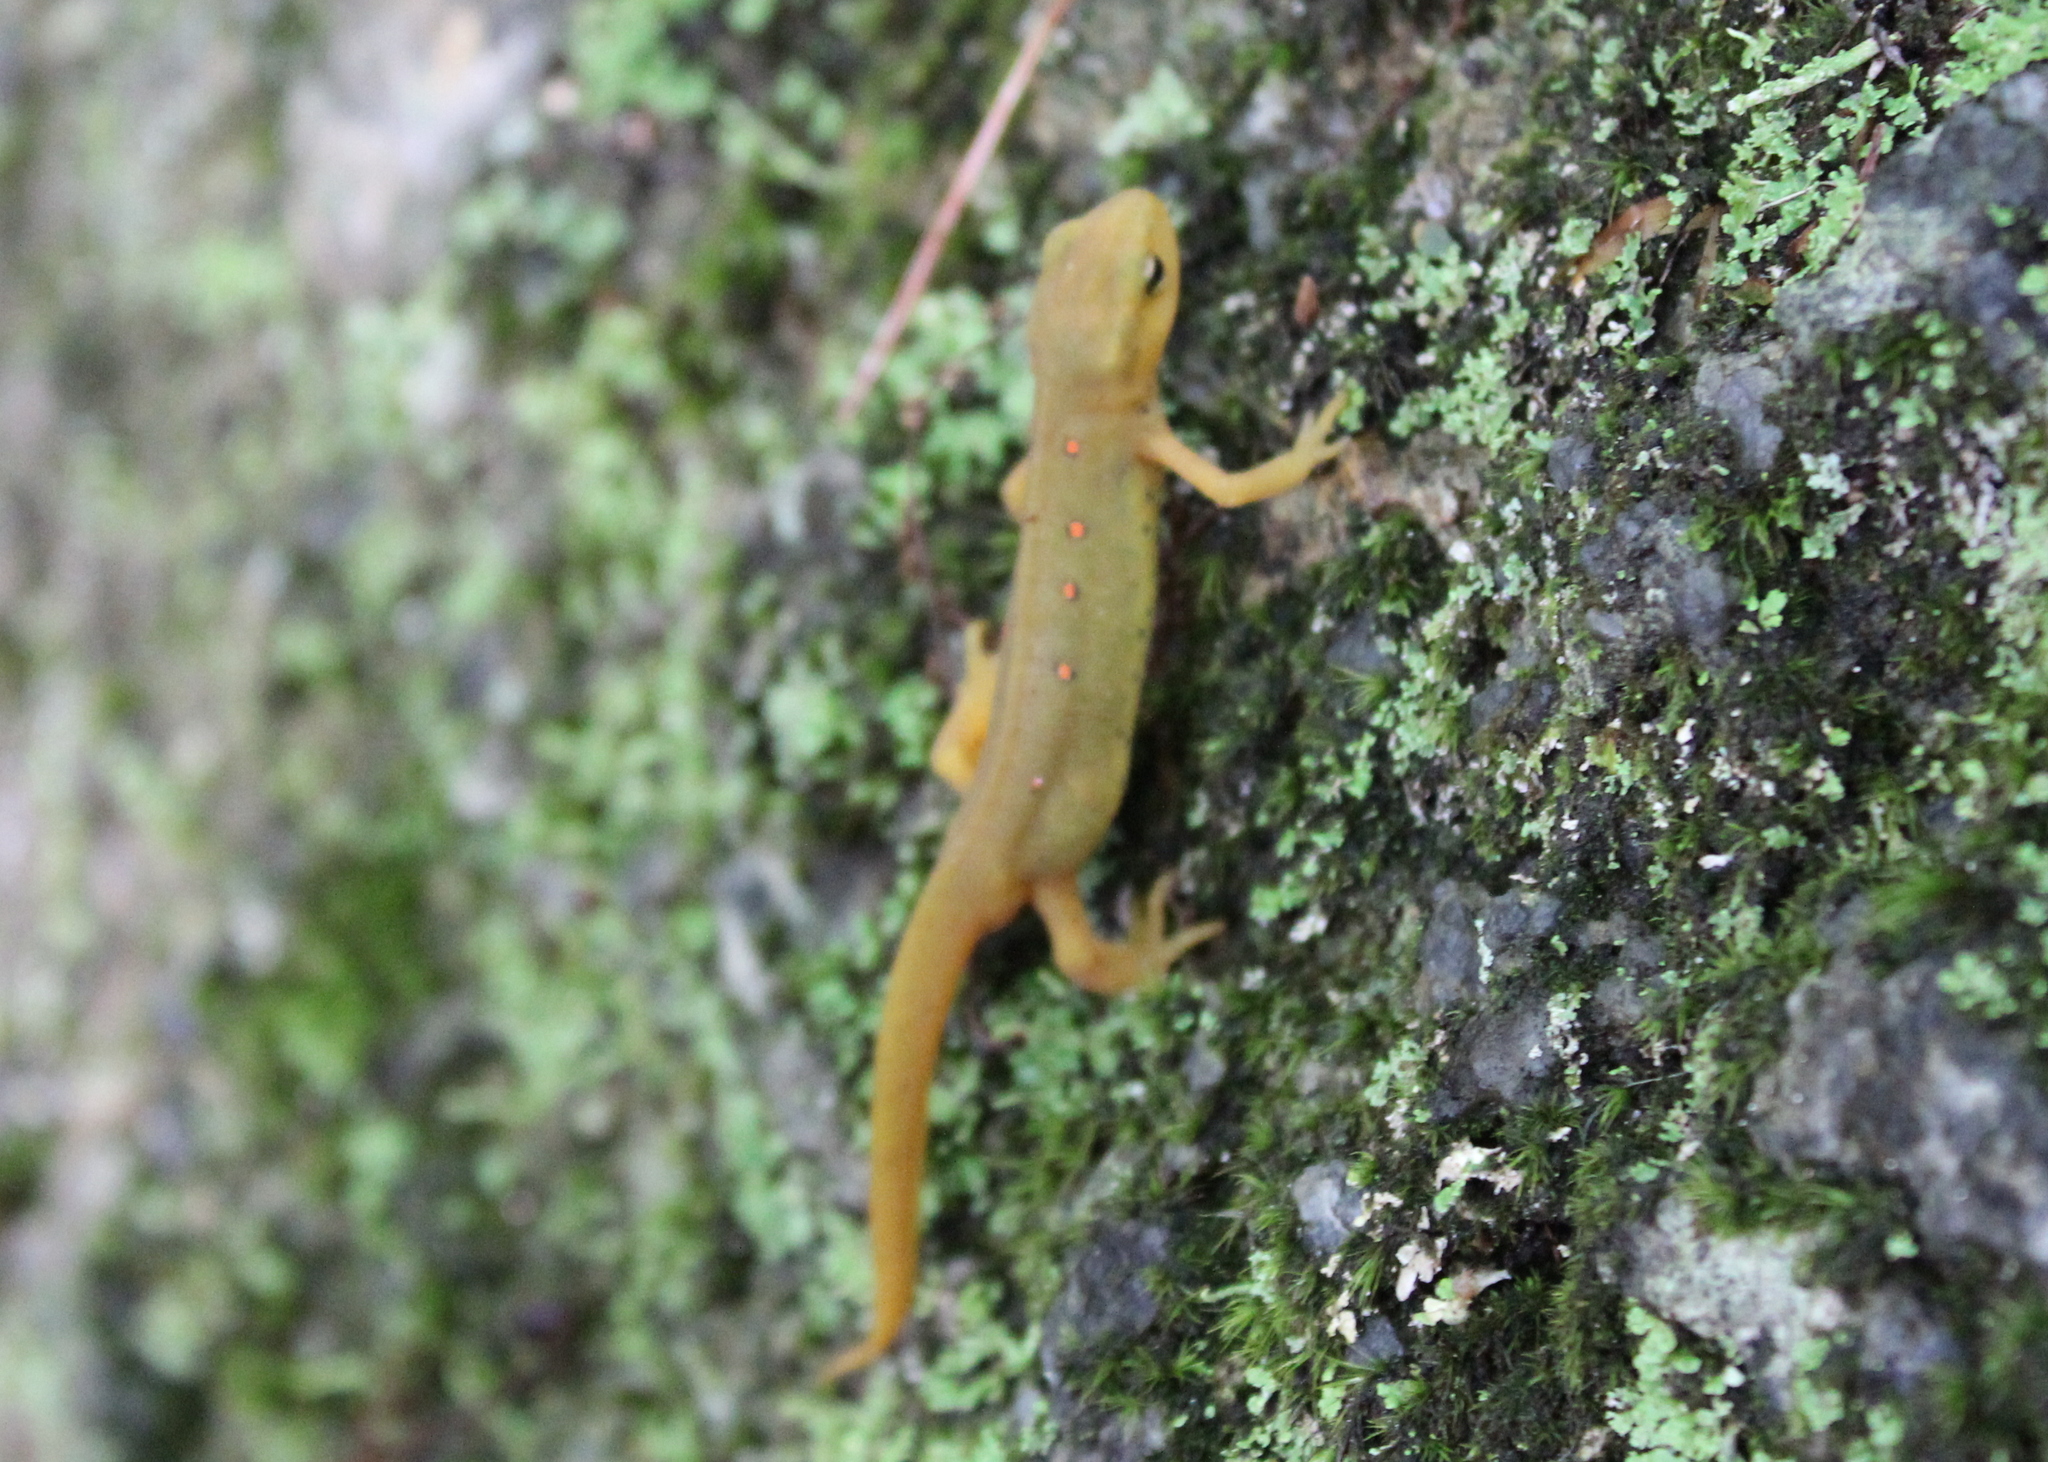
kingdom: Animalia
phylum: Chordata
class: Amphibia
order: Caudata
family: Salamandridae
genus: Notophthalmus
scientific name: Notophthalmus viridescens
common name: Eastern newt
